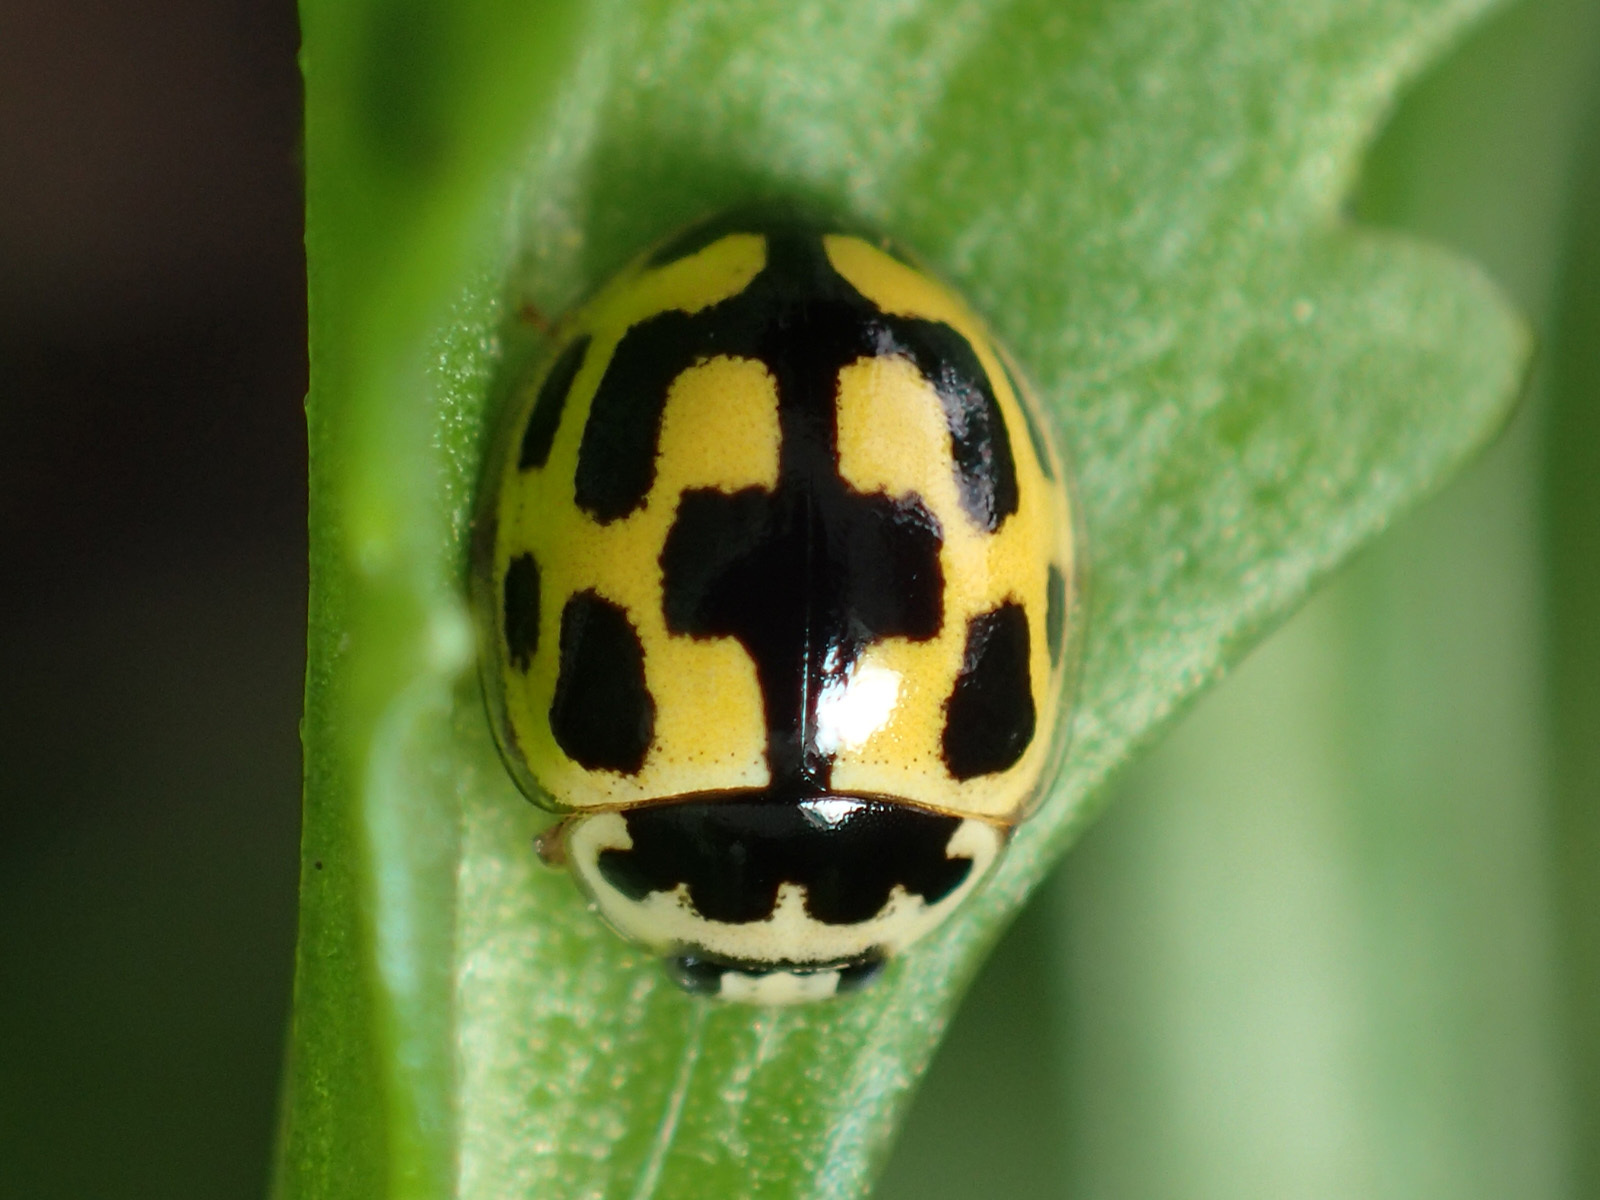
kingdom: Animalia
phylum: Arthropoda
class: Insecta
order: Coleoptera
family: Coccinellidae
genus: Propylaea
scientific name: Propylaea quatuordecimpunctata
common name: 14-spotted ladybird beetle
